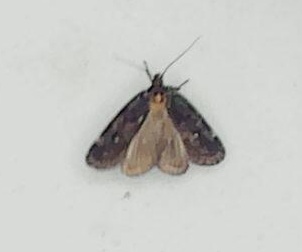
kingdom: Animalia
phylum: Arthropoda
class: Insecta
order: Lepidoptera
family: Oecophoridae
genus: Barea
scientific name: Barea codrella
